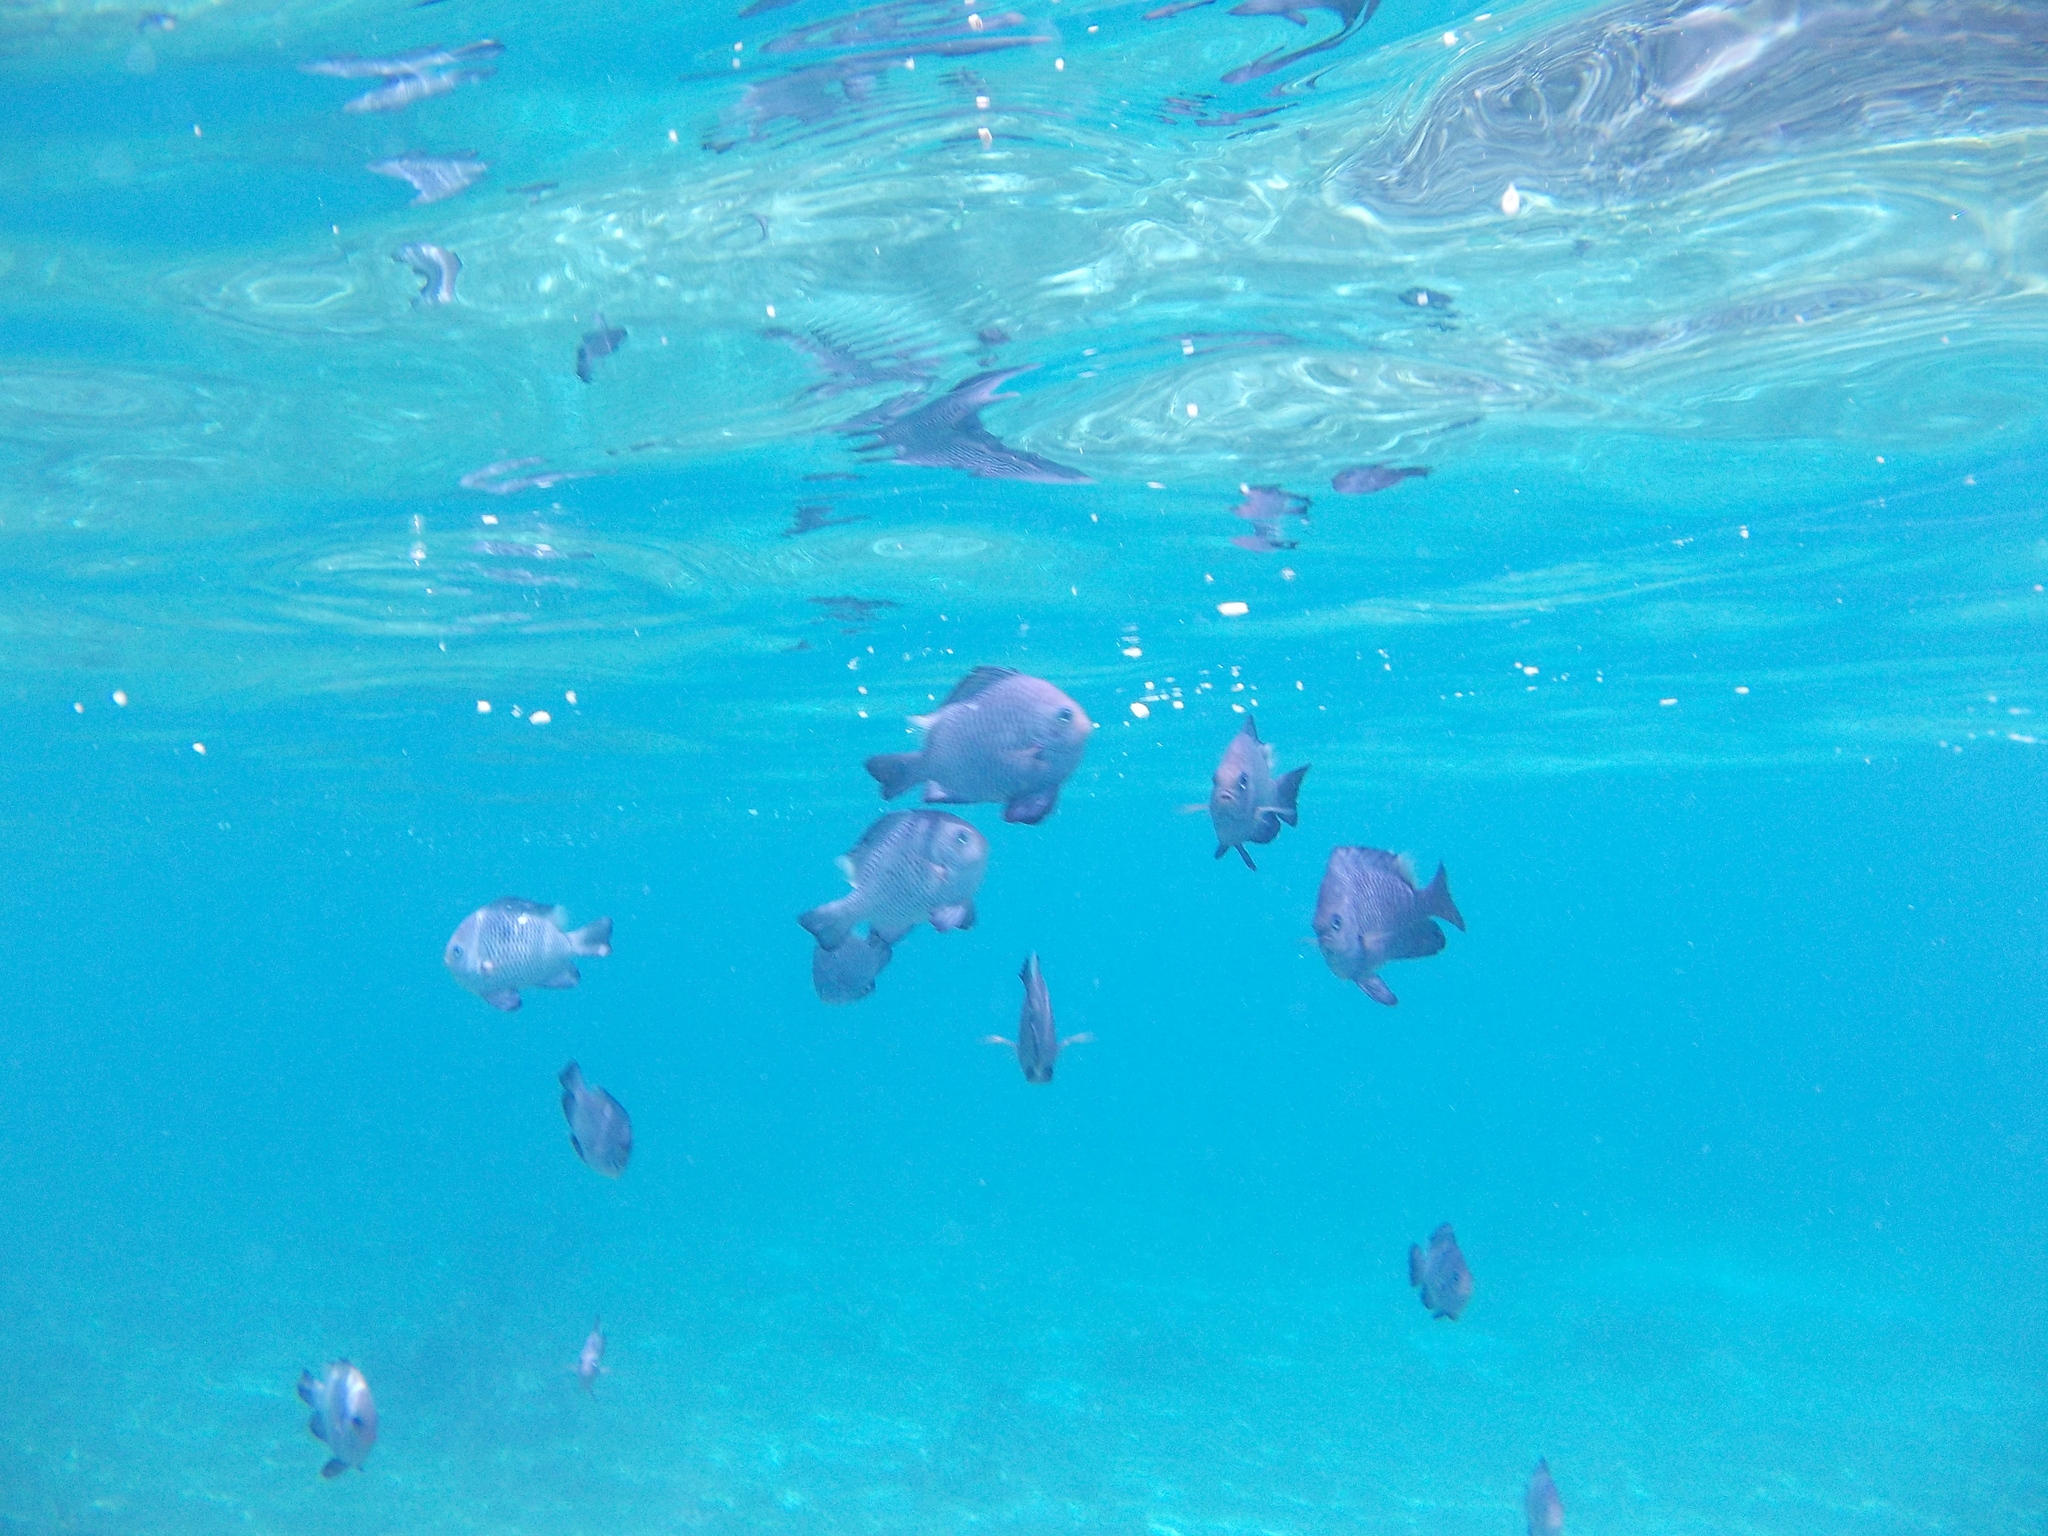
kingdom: Animalia
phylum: Chordata
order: Perciformes
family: Pomacentridae
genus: Dascyllus
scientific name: Dascyllus trimaculatus
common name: Threespot dascyllus
